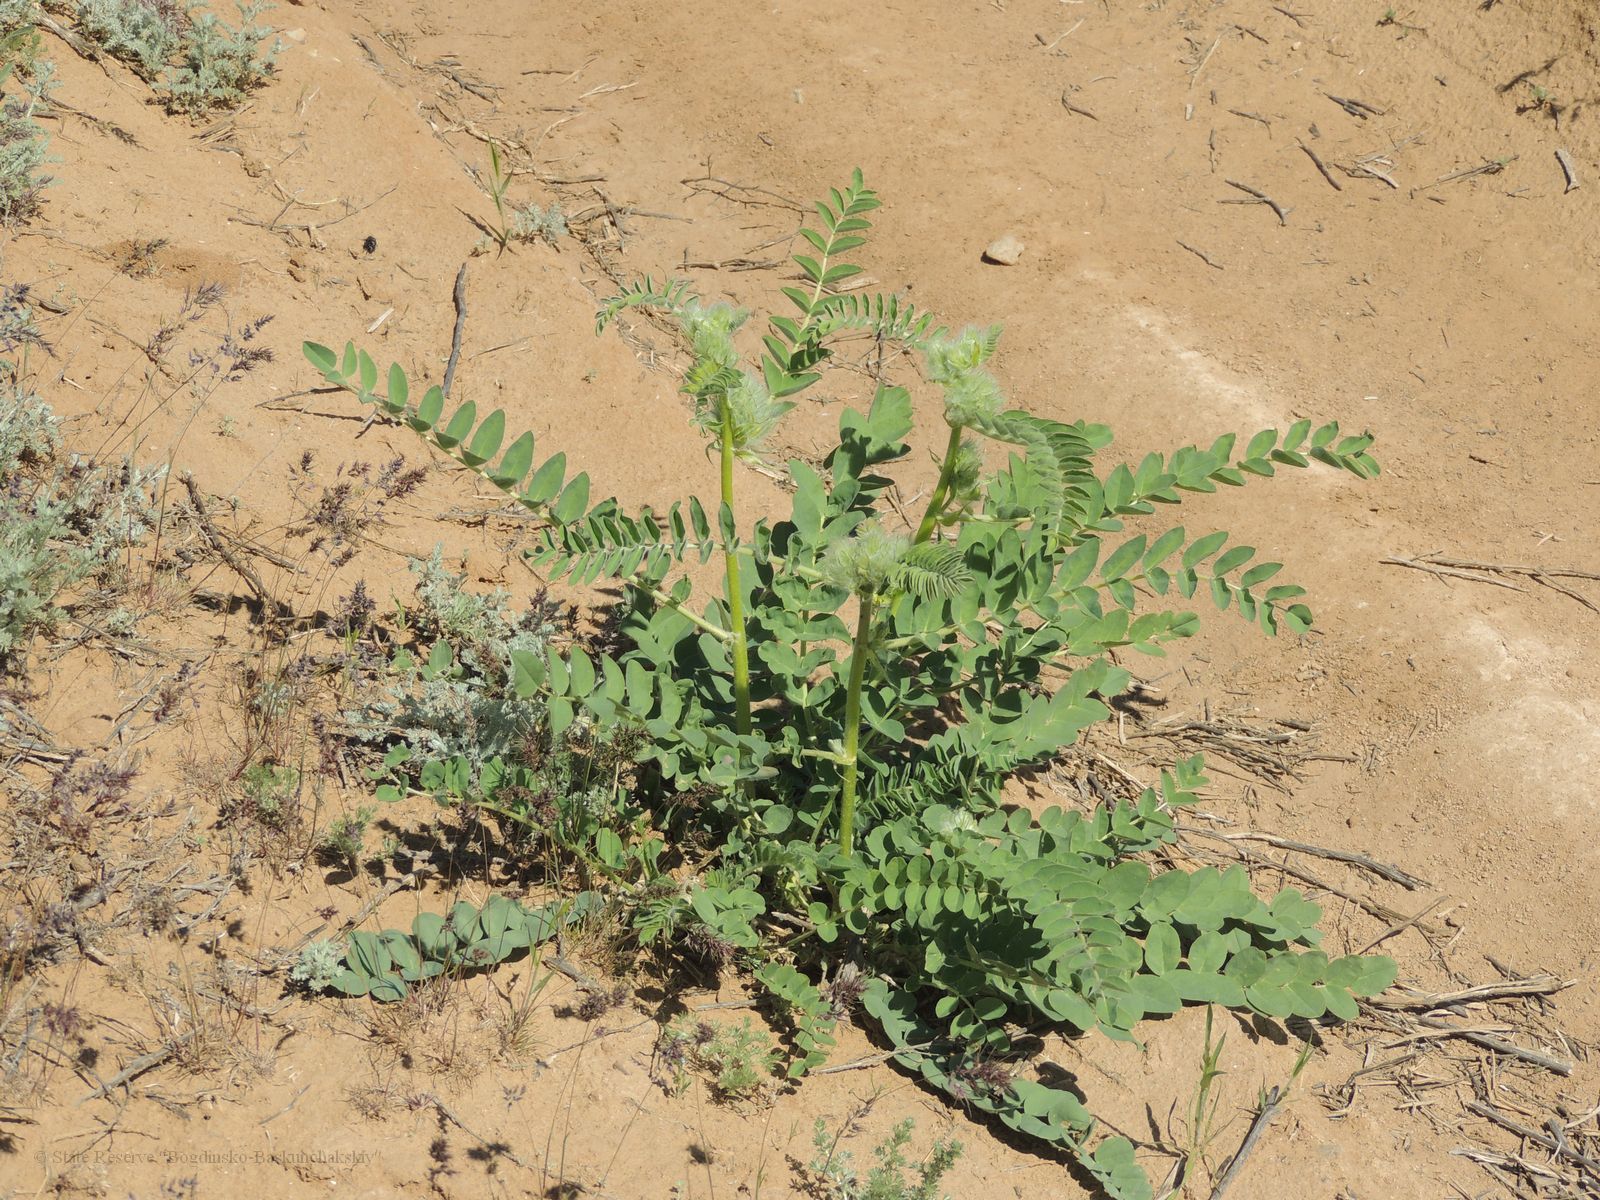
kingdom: Plantae
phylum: Tracheophyta
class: Magnoliopsida
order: Fabales
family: Fabaceae
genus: Astragalus
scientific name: Astragalus vulpinus
